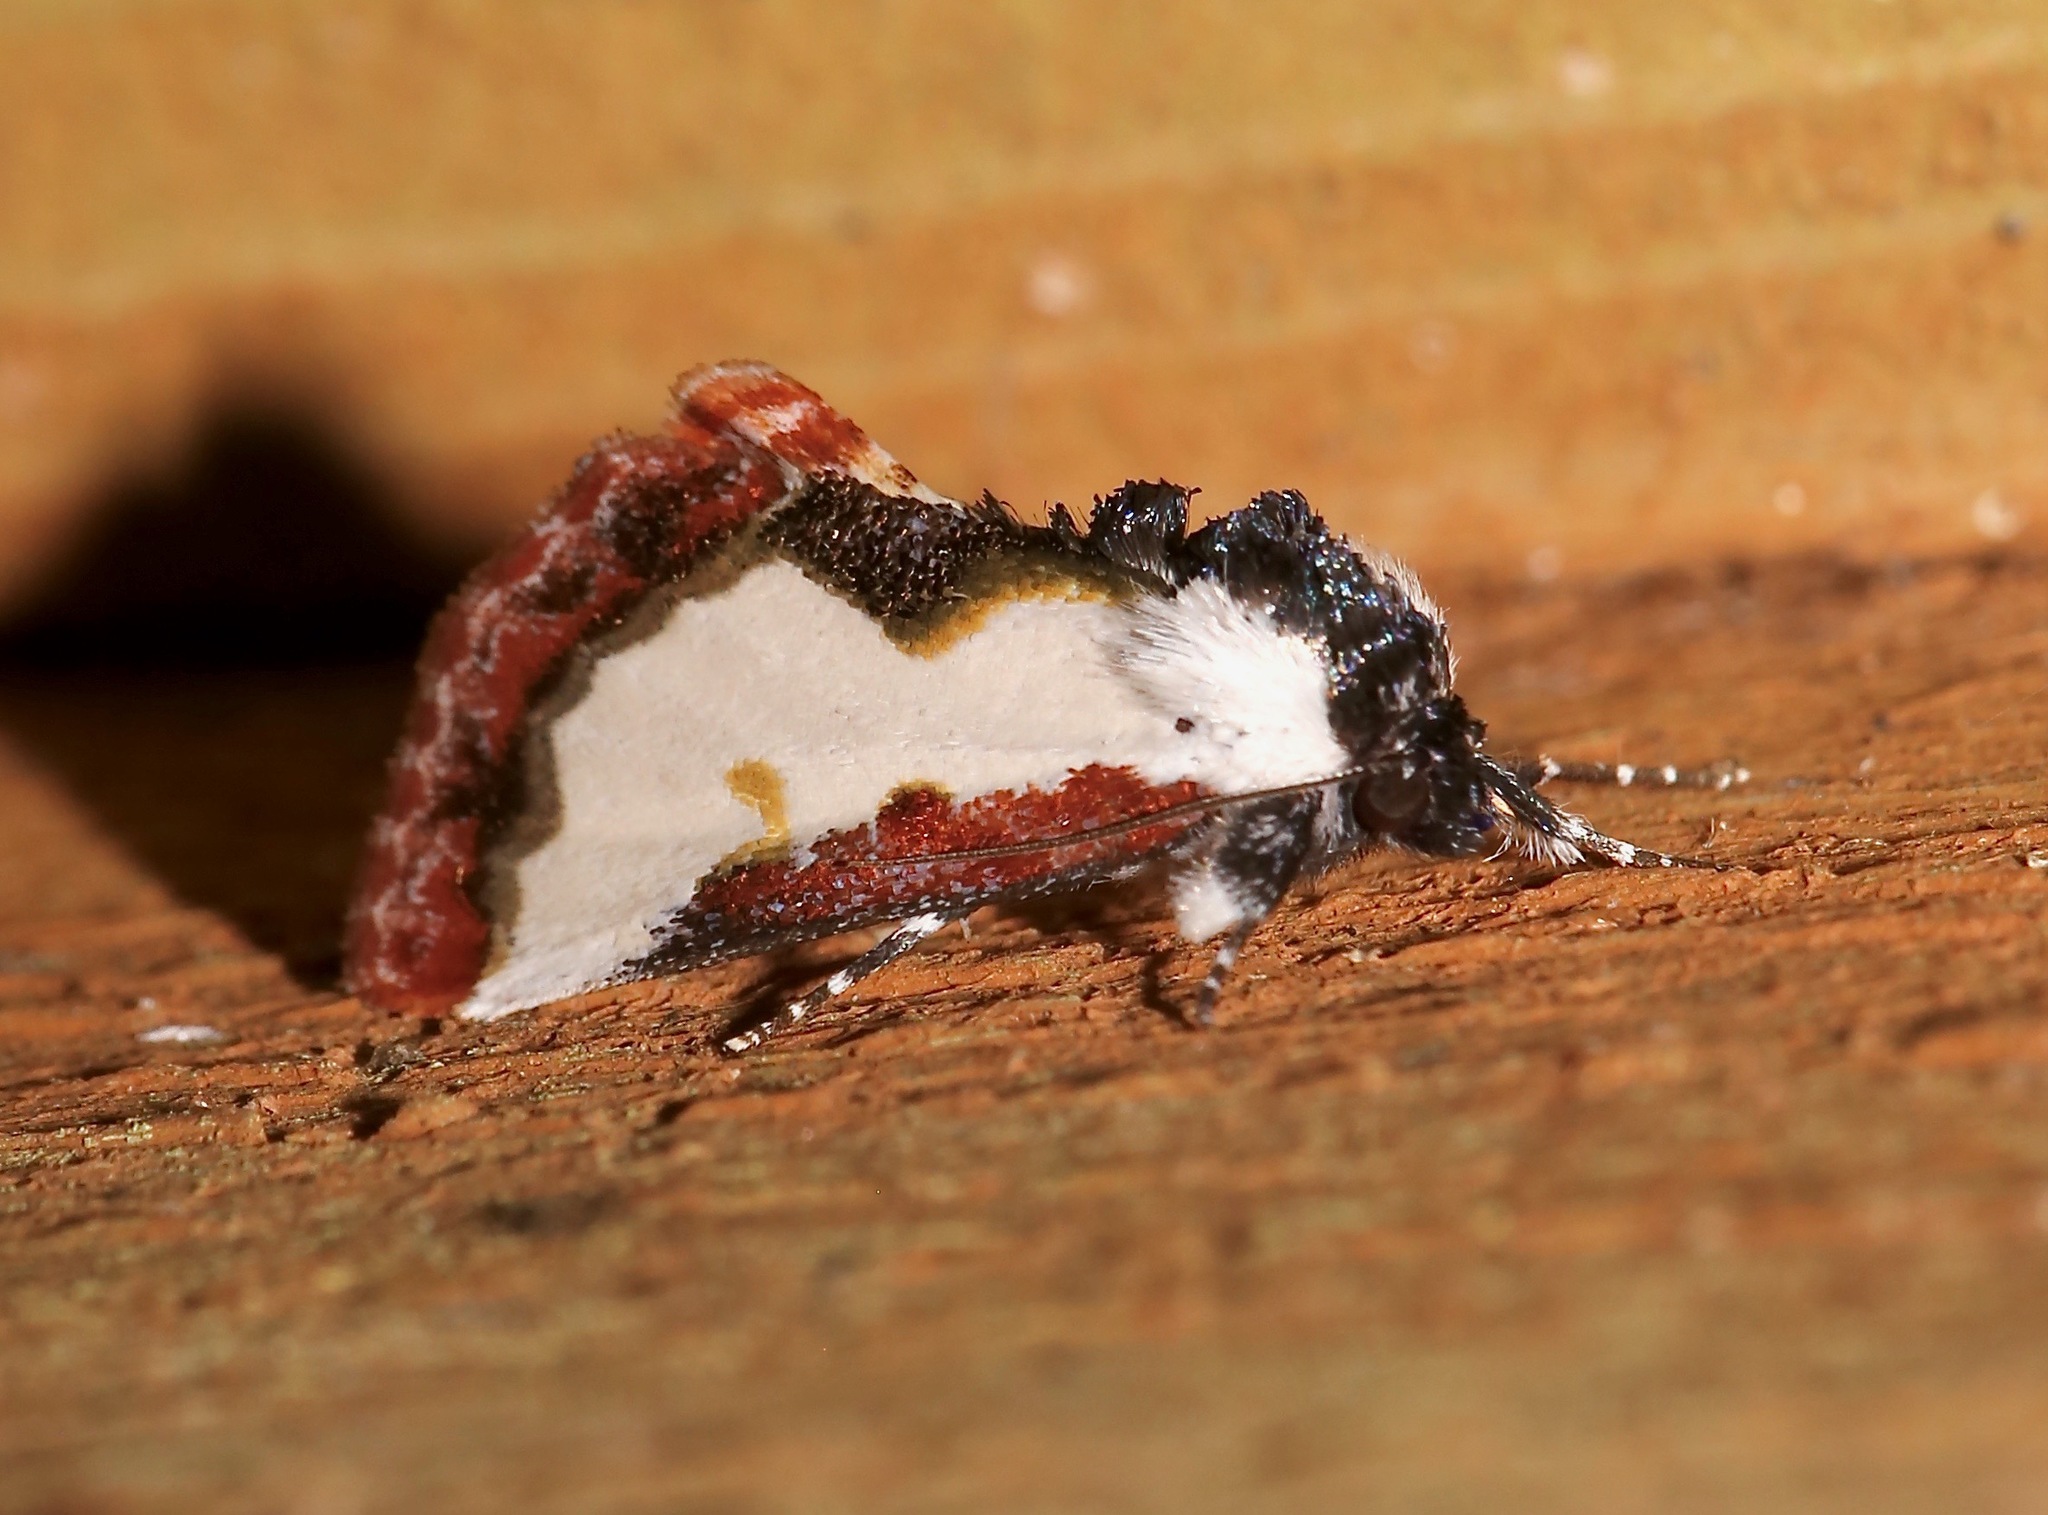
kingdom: Animalia
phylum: Arthropoda
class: Insecta
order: Lepidoptera
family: Noctuidae
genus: Eudryas
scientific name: Eudryas unio
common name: Pearly wood-nymph
